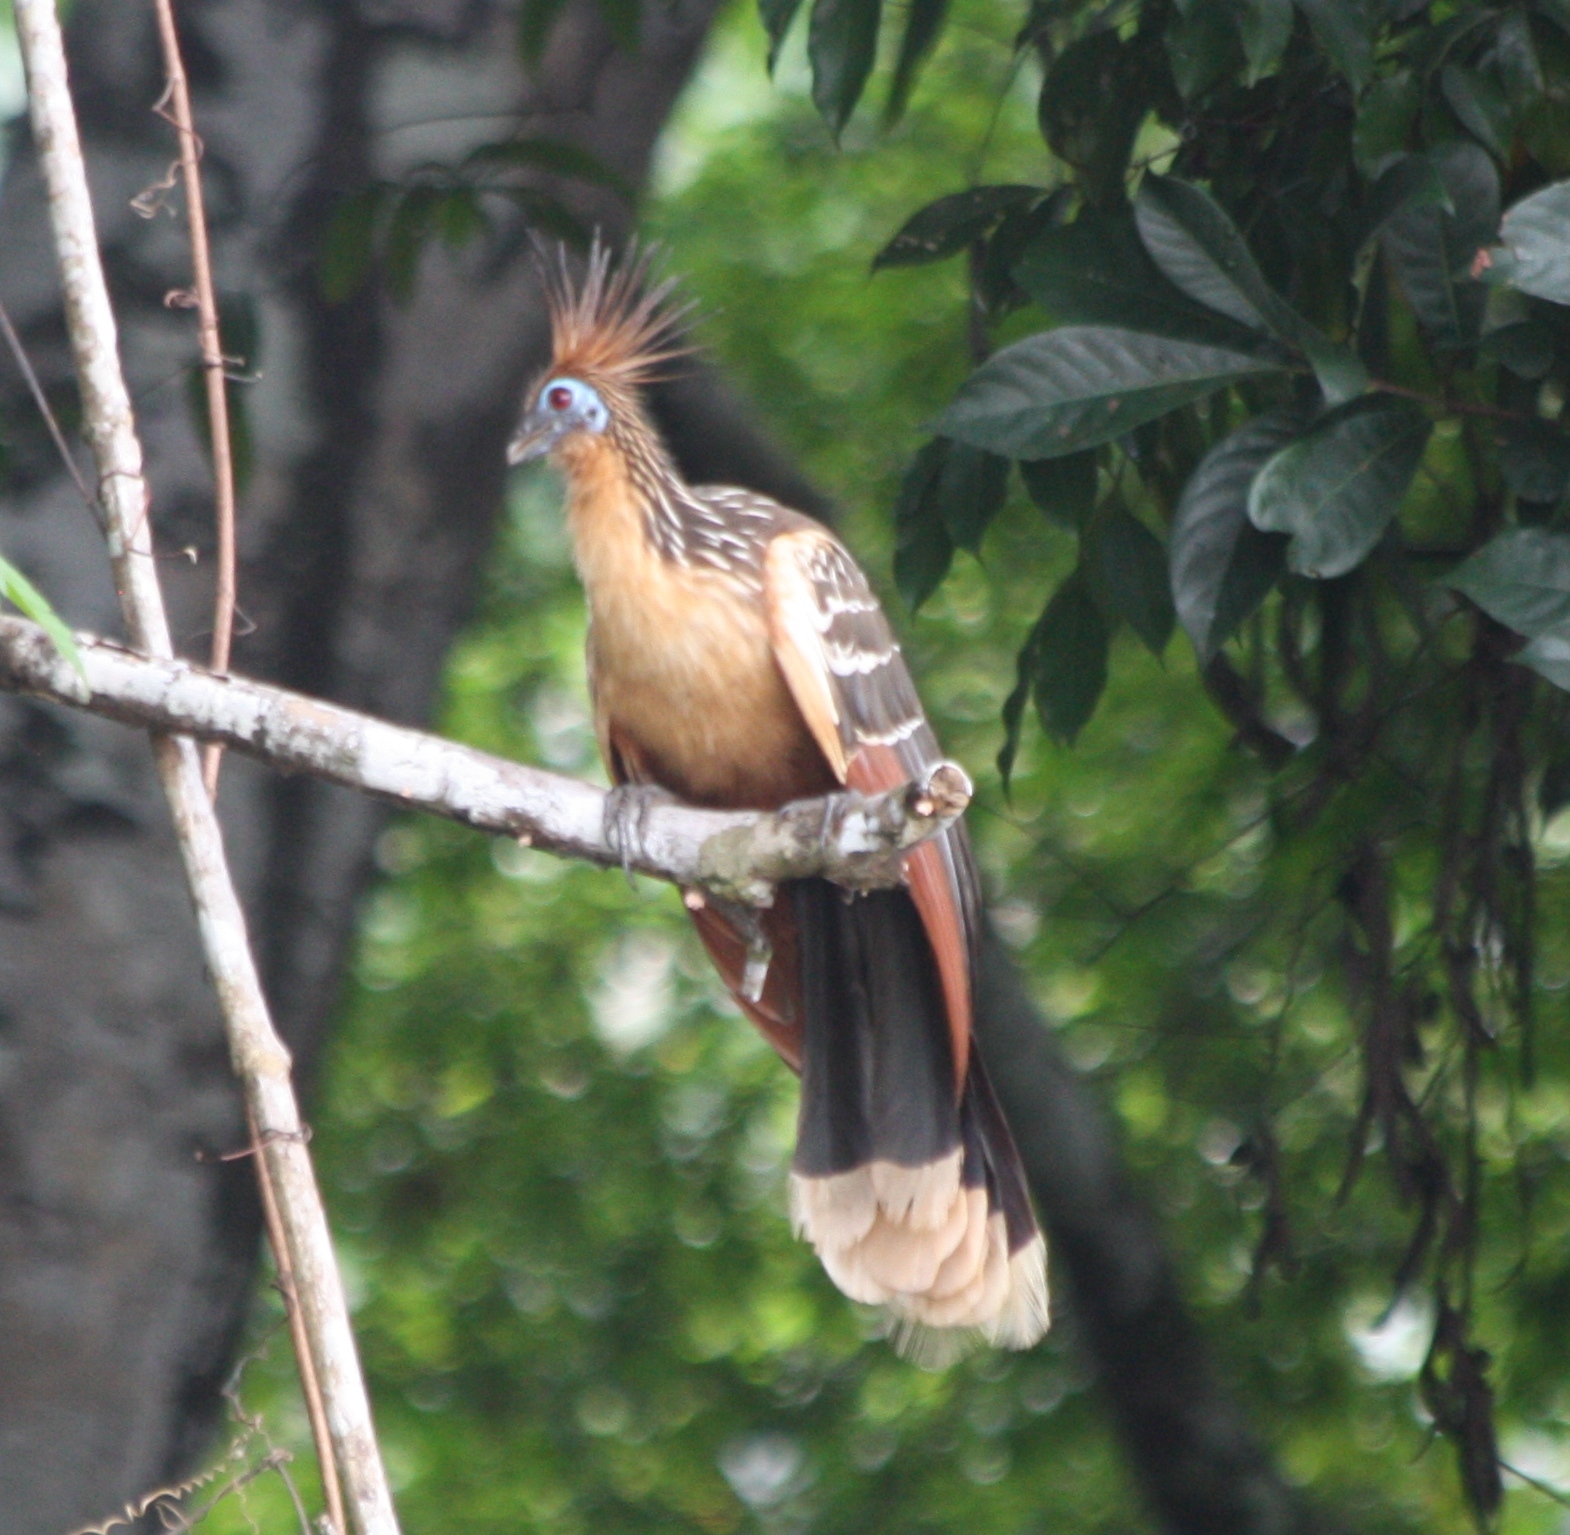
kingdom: Animalia
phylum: Chordata
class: Aves
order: Opisthocomiformes
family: Opisthocomidae
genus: Opisthocomus
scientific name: Opisthocomus hoazin
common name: Hoatzin
